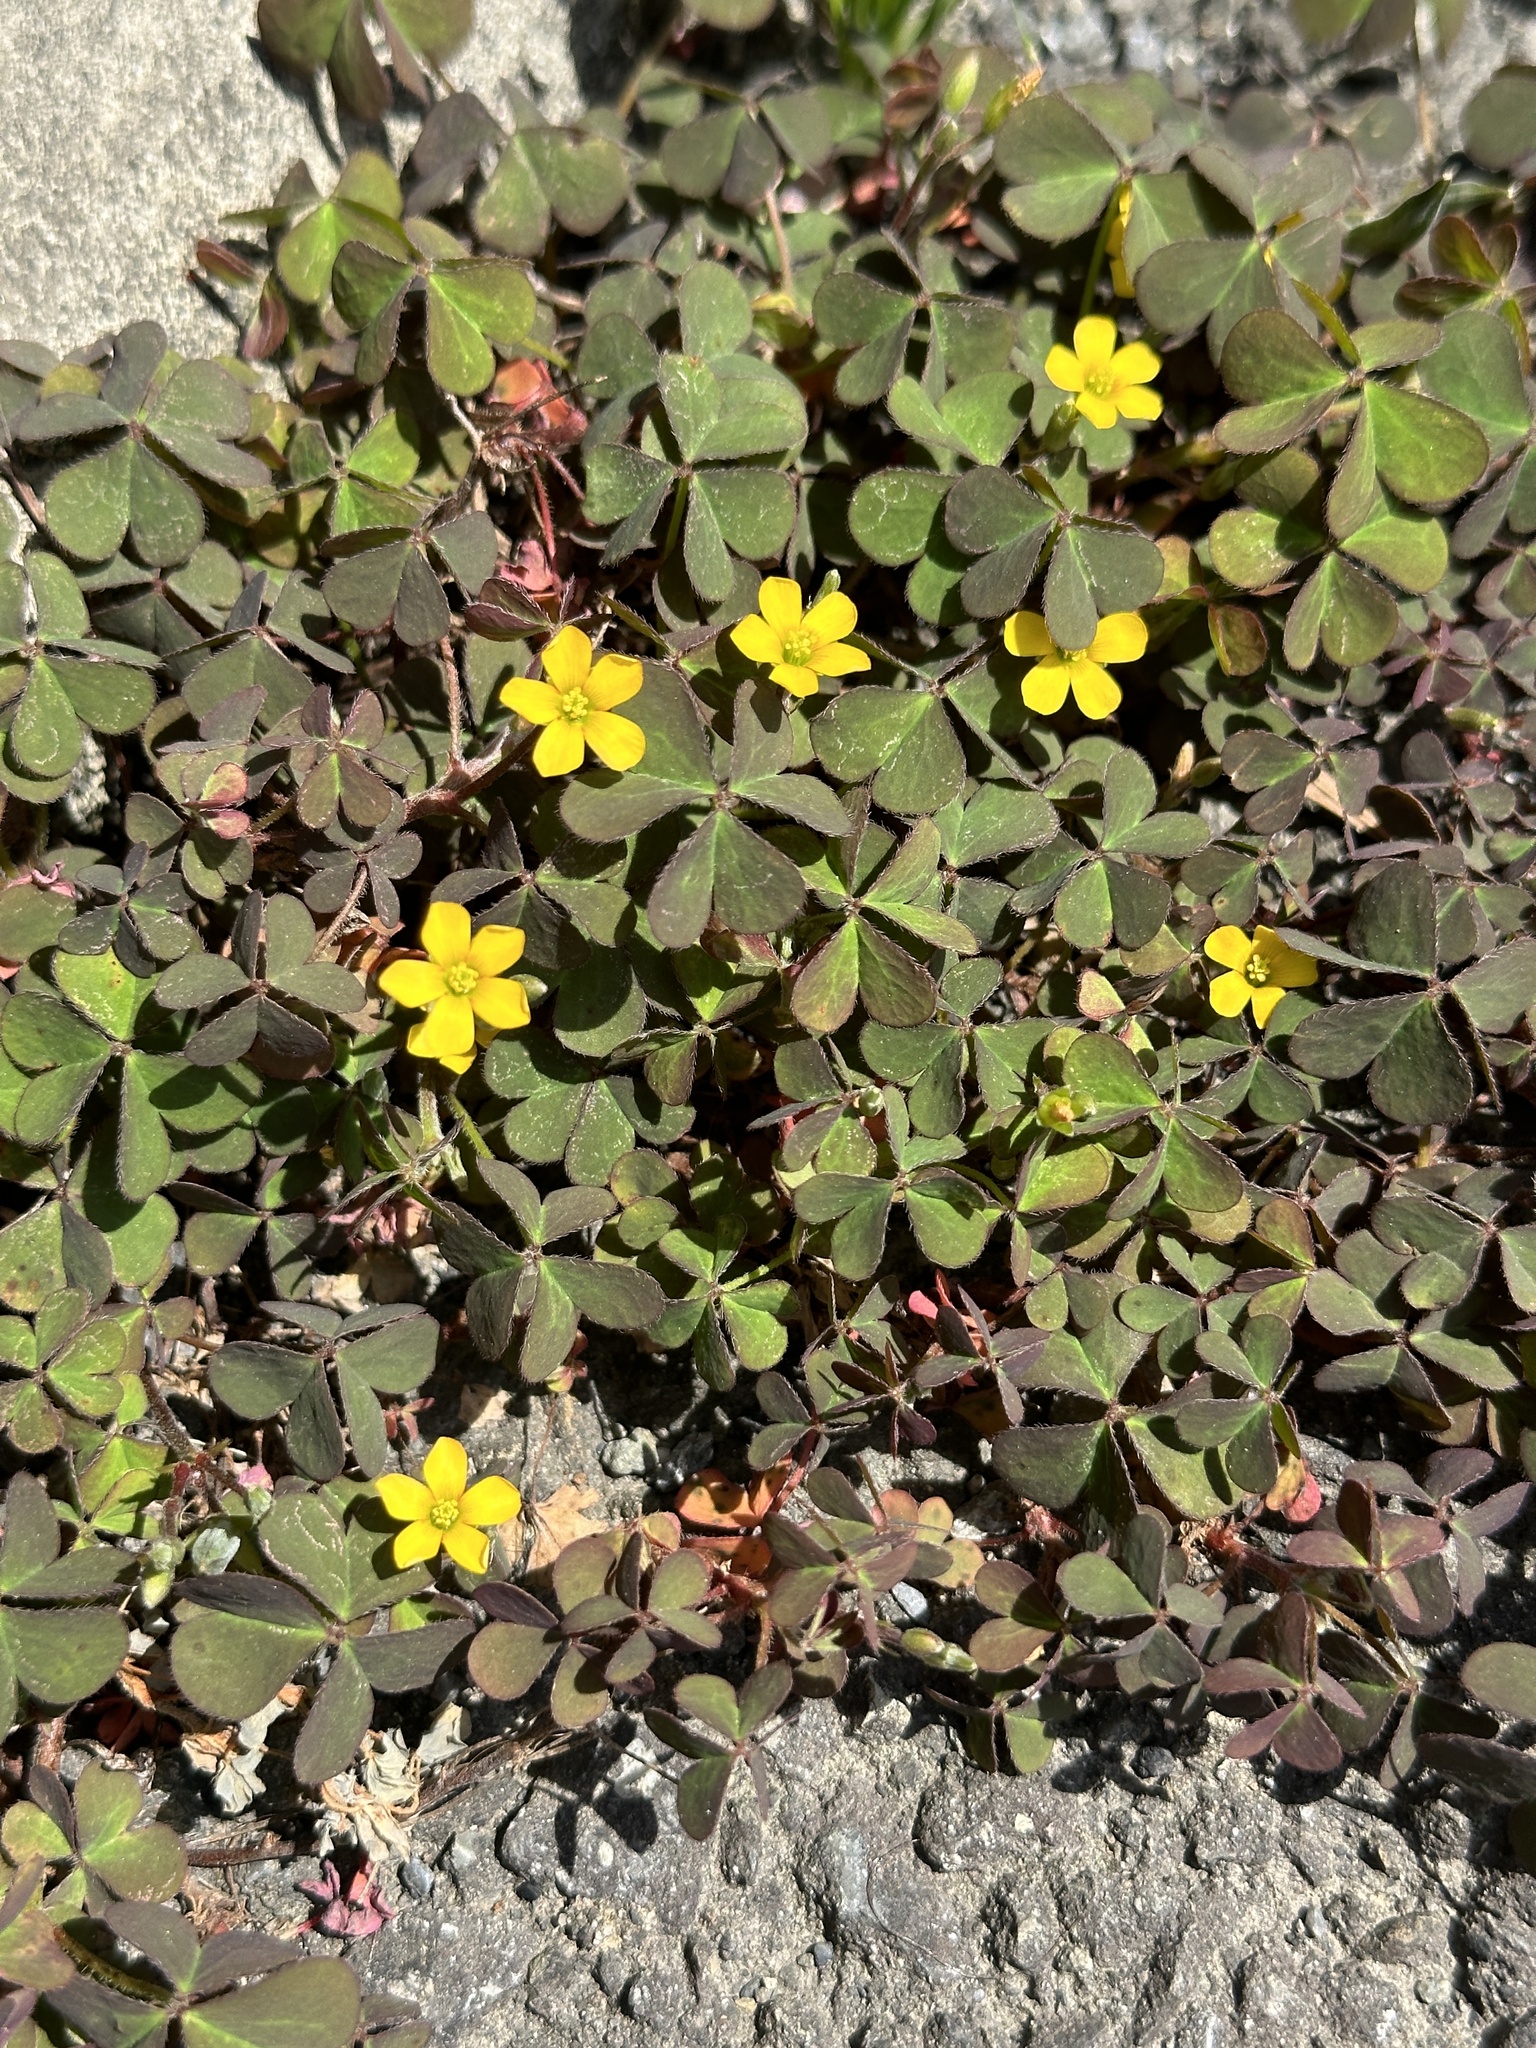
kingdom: Plantae
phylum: Tracheophyta
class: Magnoliopsida
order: Oxalidales
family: Oxalidaceae
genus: Oxalis
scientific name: Oxalis corniculata
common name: Procumbent yellow-sorrel
